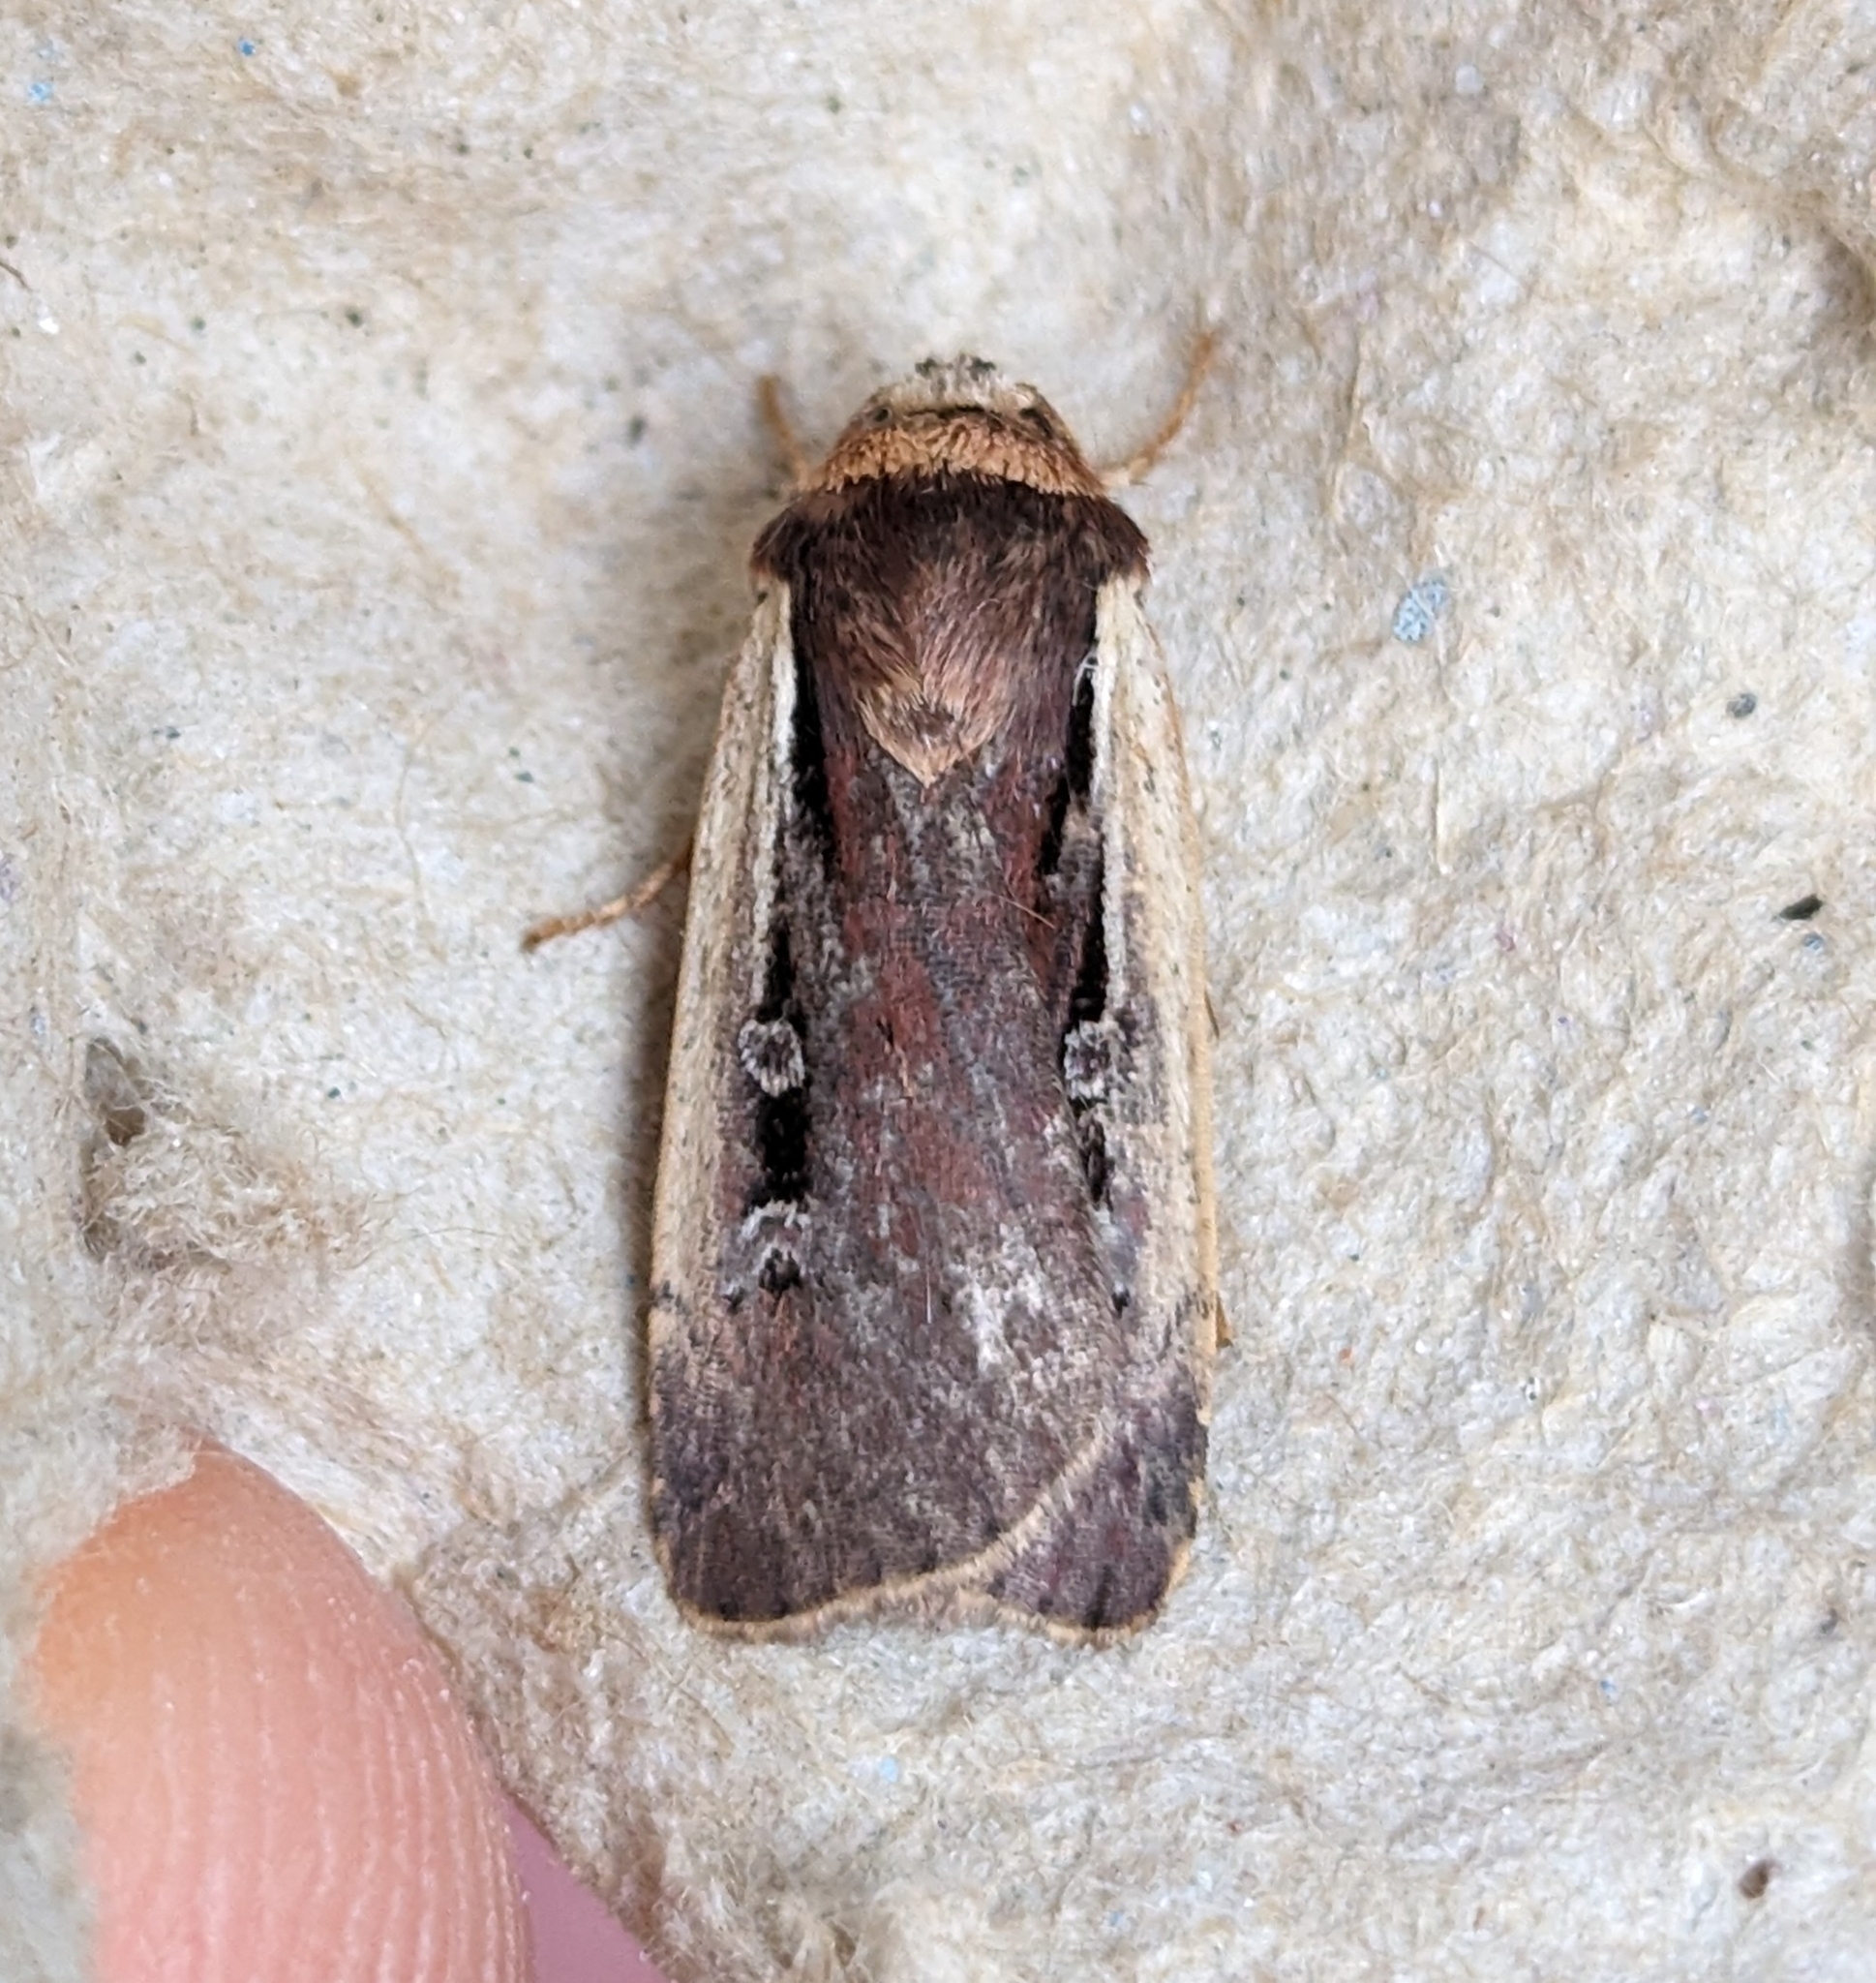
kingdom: Animalia
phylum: Arthropoda
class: Insecta
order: Lepidoptera
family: Noctuidae
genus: Ochropleura
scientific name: Ochropleura implecta
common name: Flame-shouldered dart
